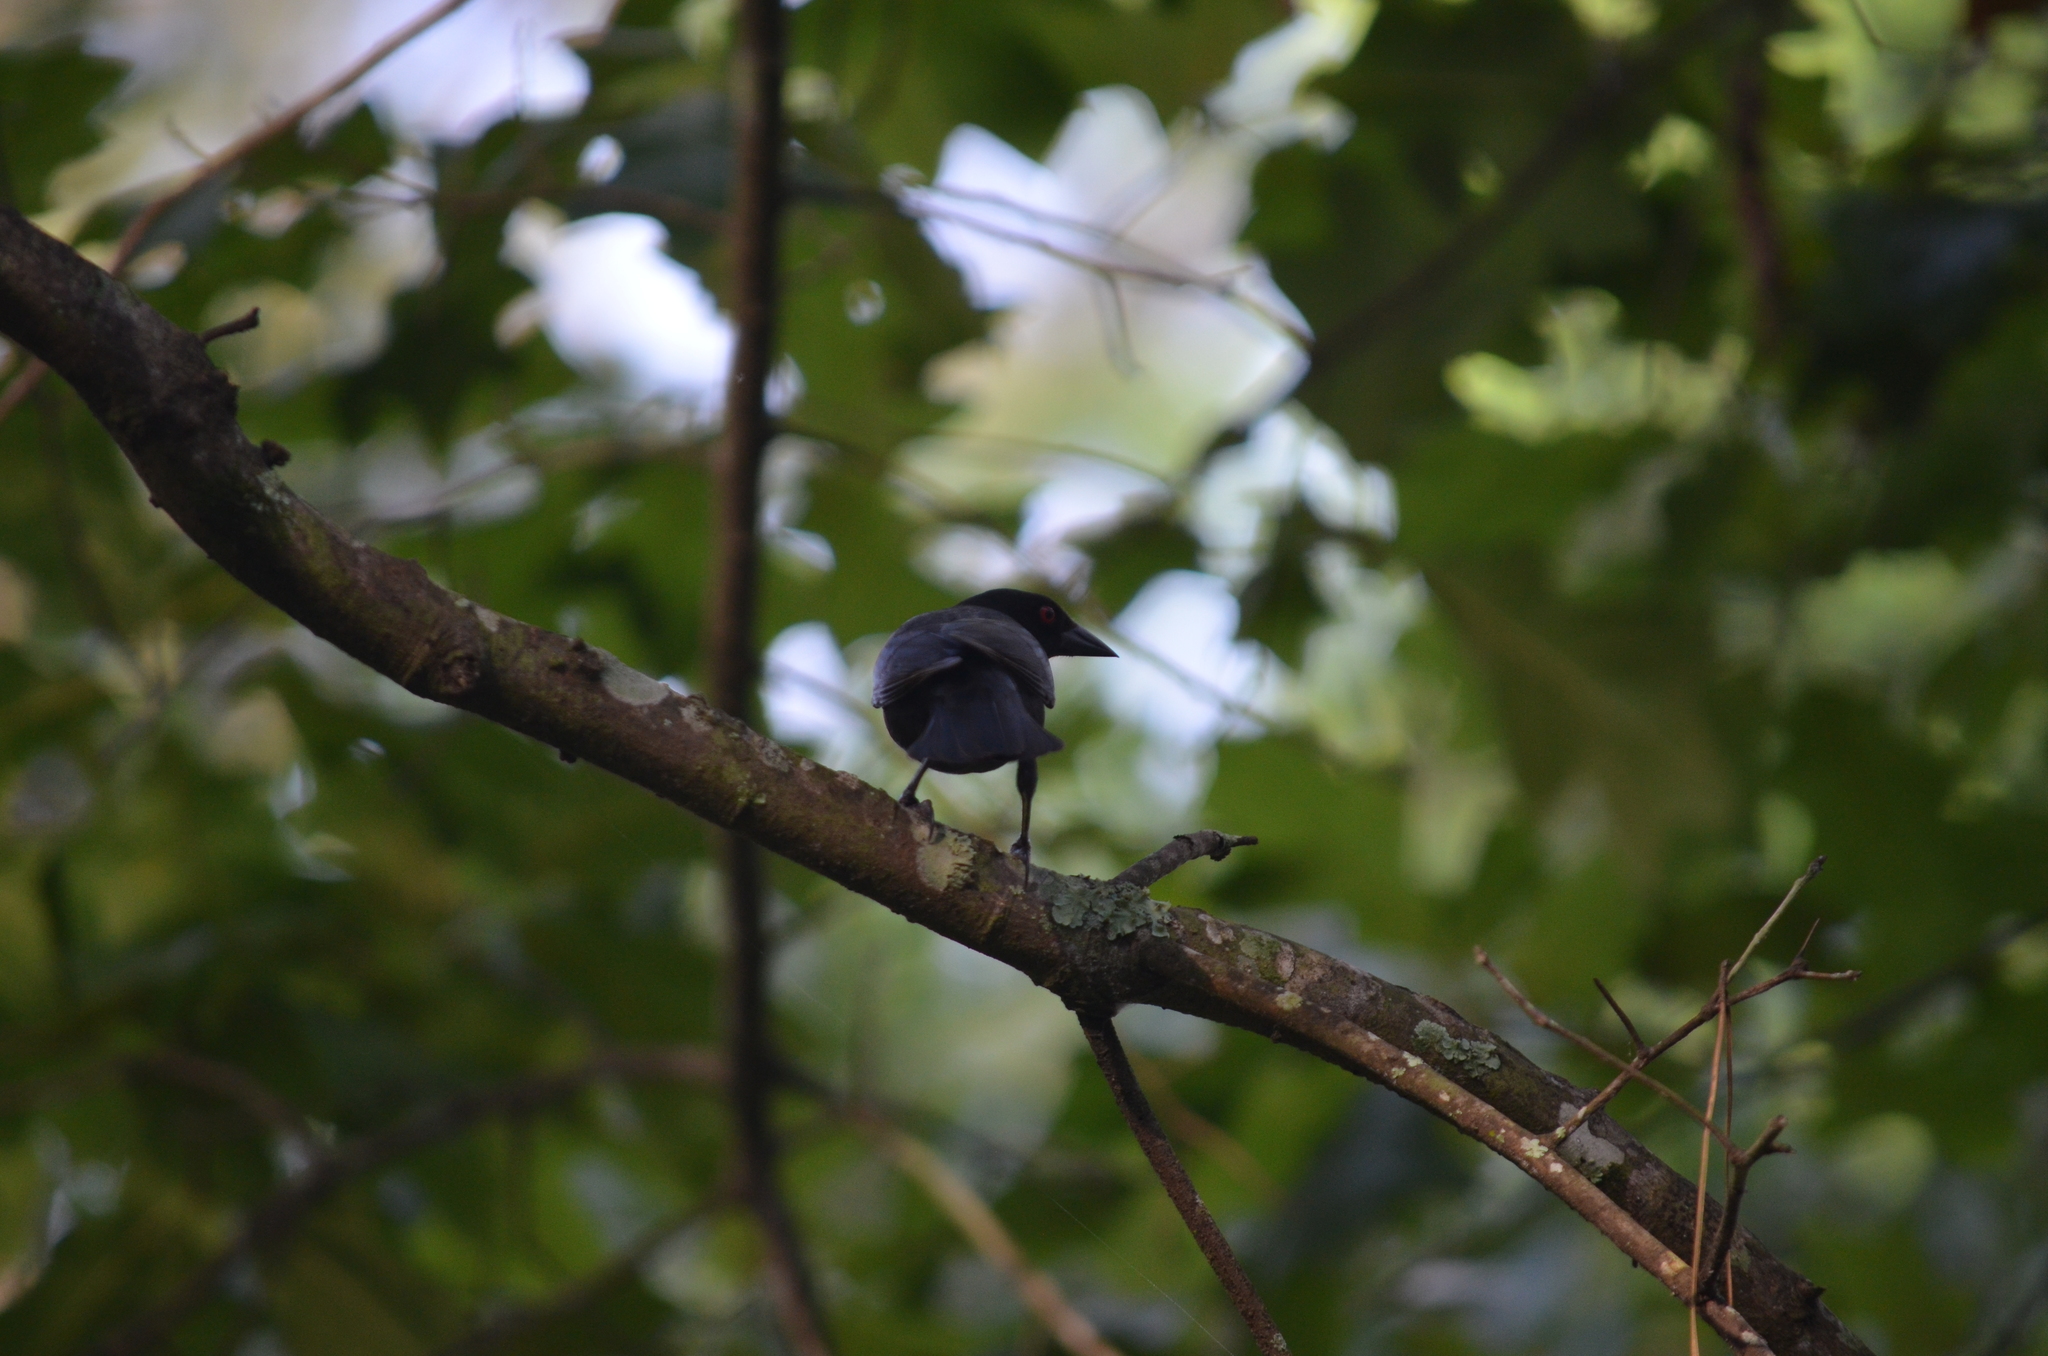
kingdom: Animalia
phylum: Chordata
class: Aves
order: Passeriformes
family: Icteridae
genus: Molothrus
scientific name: Molothrus aeneus
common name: Bronzed cowbird
